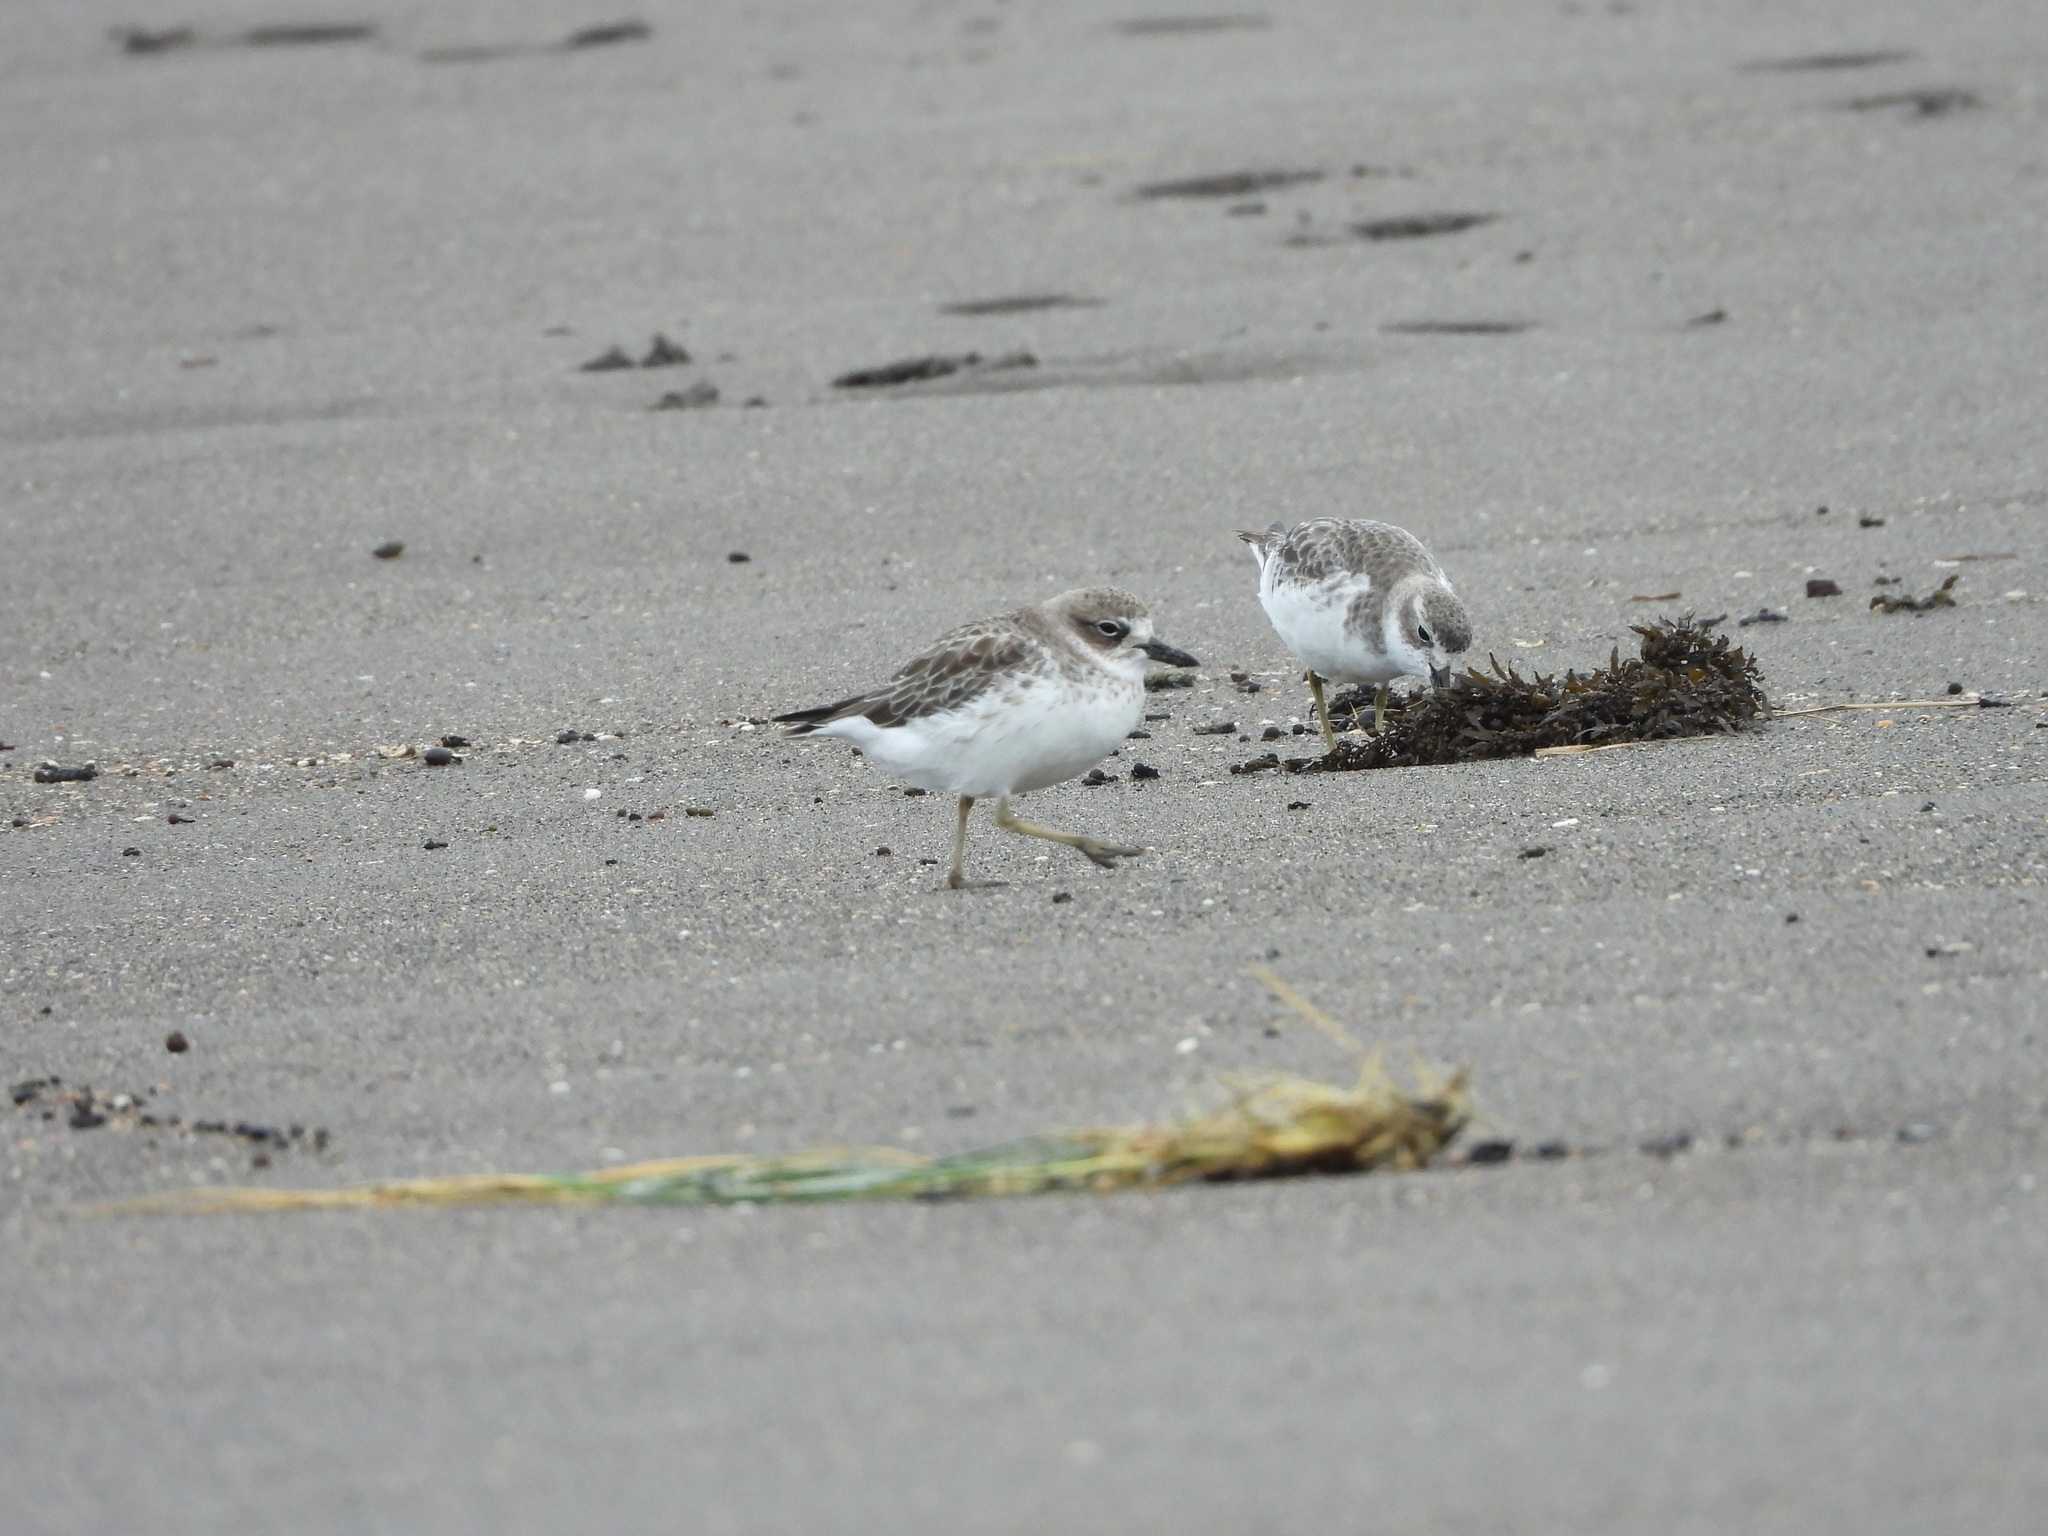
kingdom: Animalia
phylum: Chordata
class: Aves
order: Charadriiformes
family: Charadriidae
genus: Anarhynchus
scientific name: Anarhynchus
